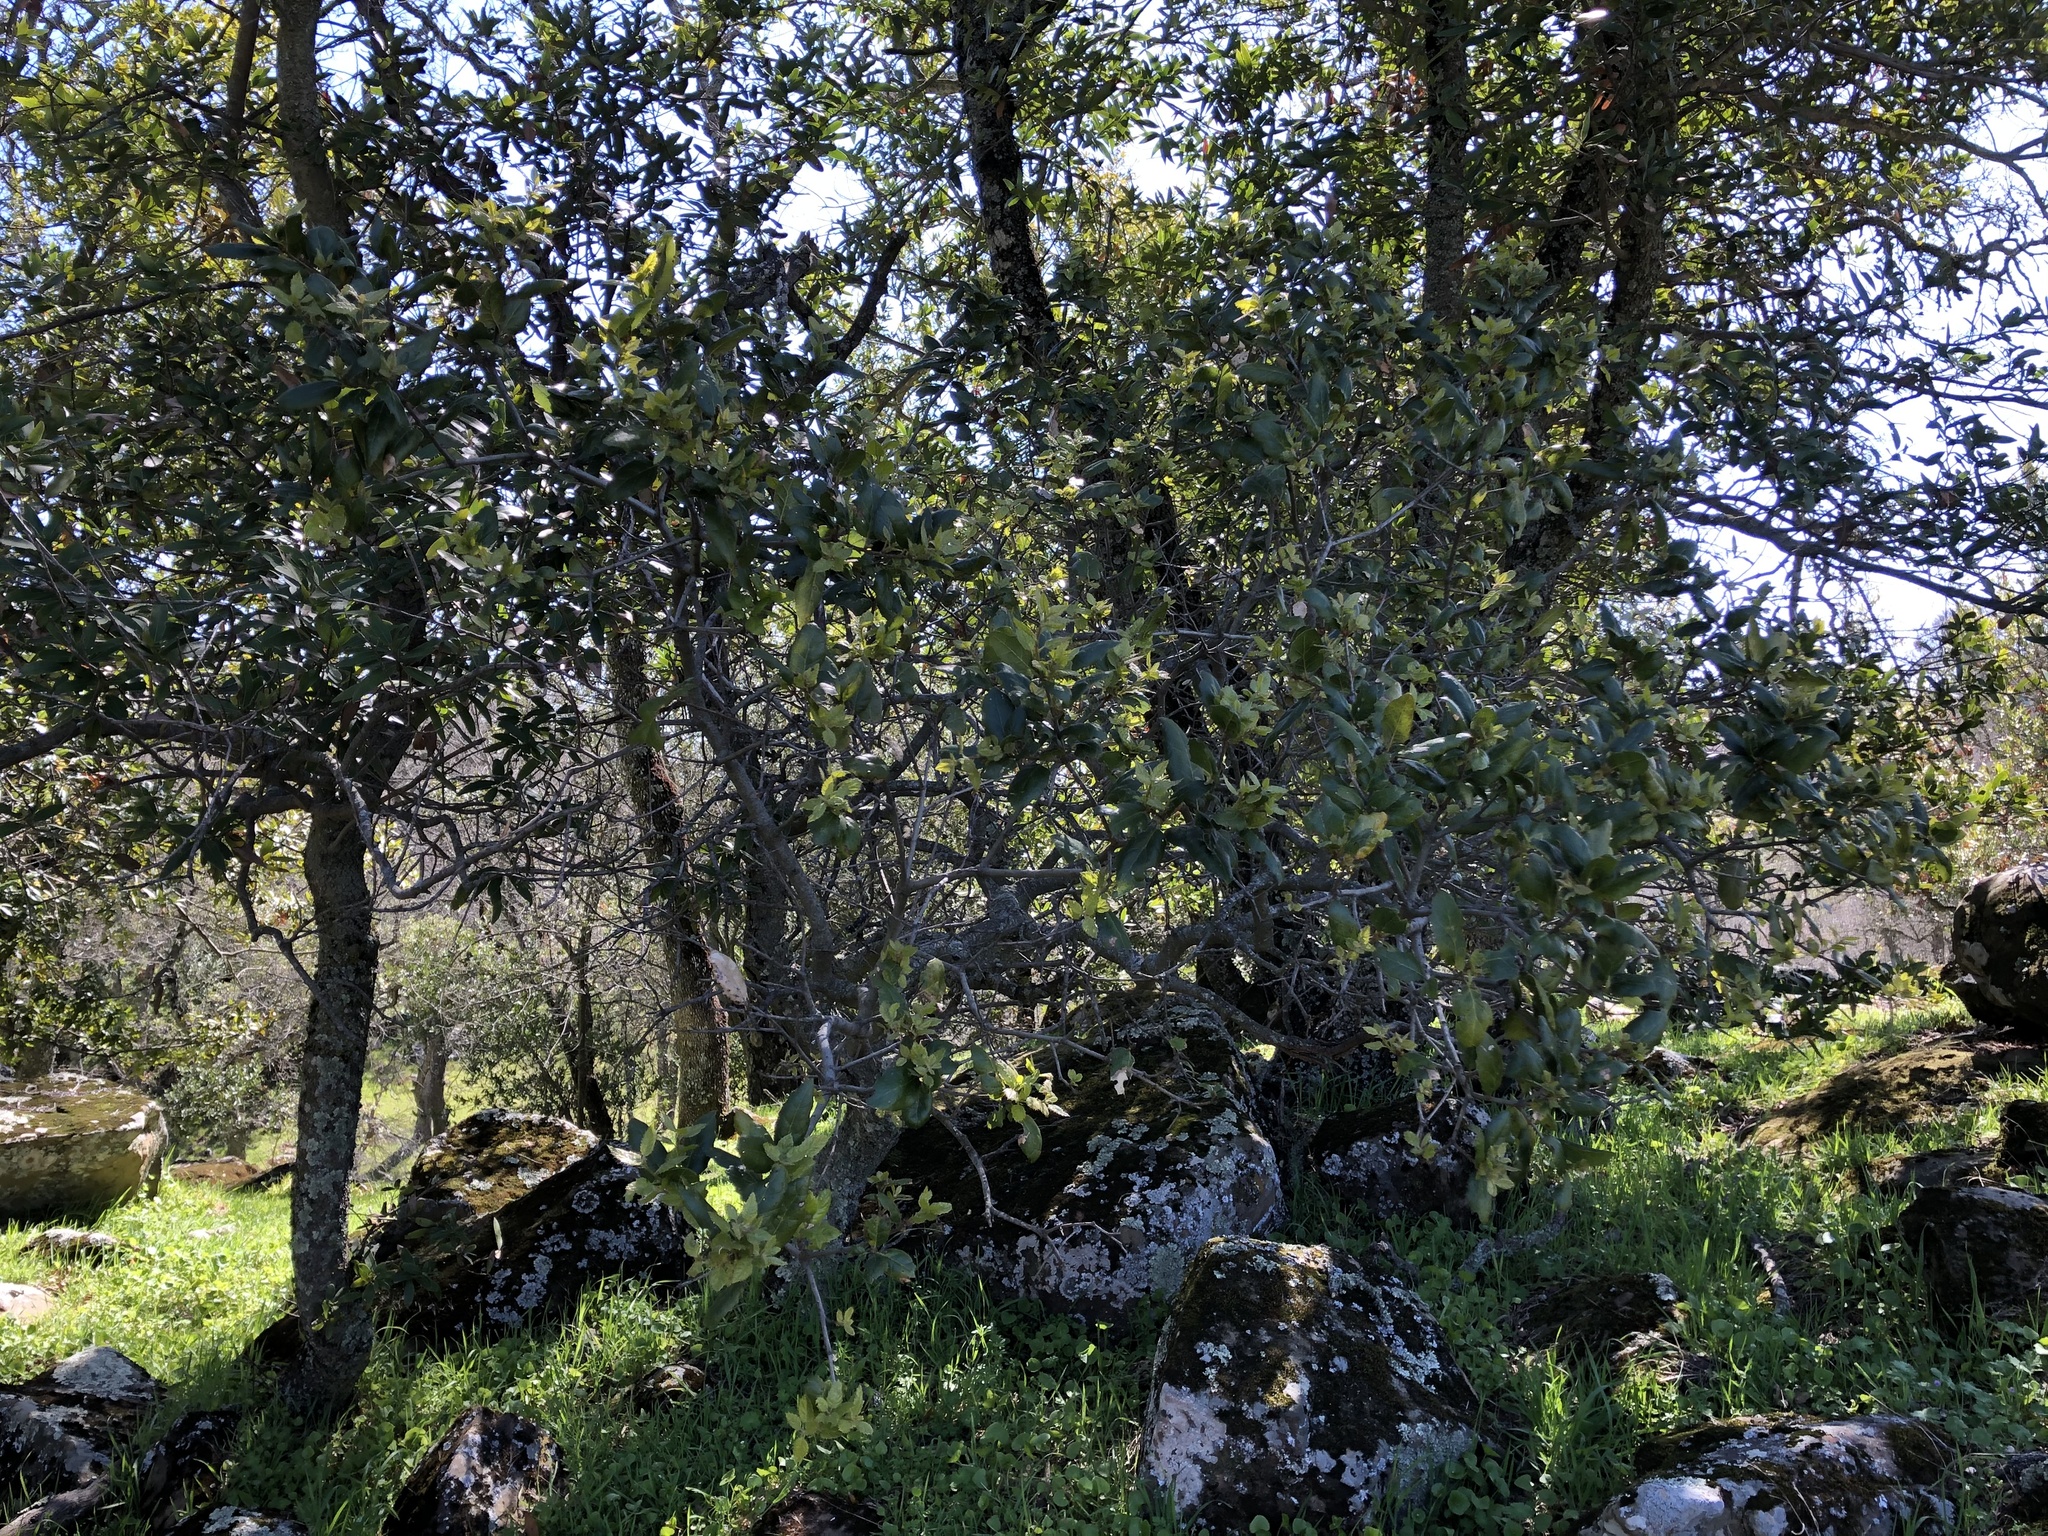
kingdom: Plantae
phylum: Tracheophyta
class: Magnoliopsida
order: Fagales
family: Fagaceae
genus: Quercus
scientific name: Quercus agrifolia
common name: California live oak
